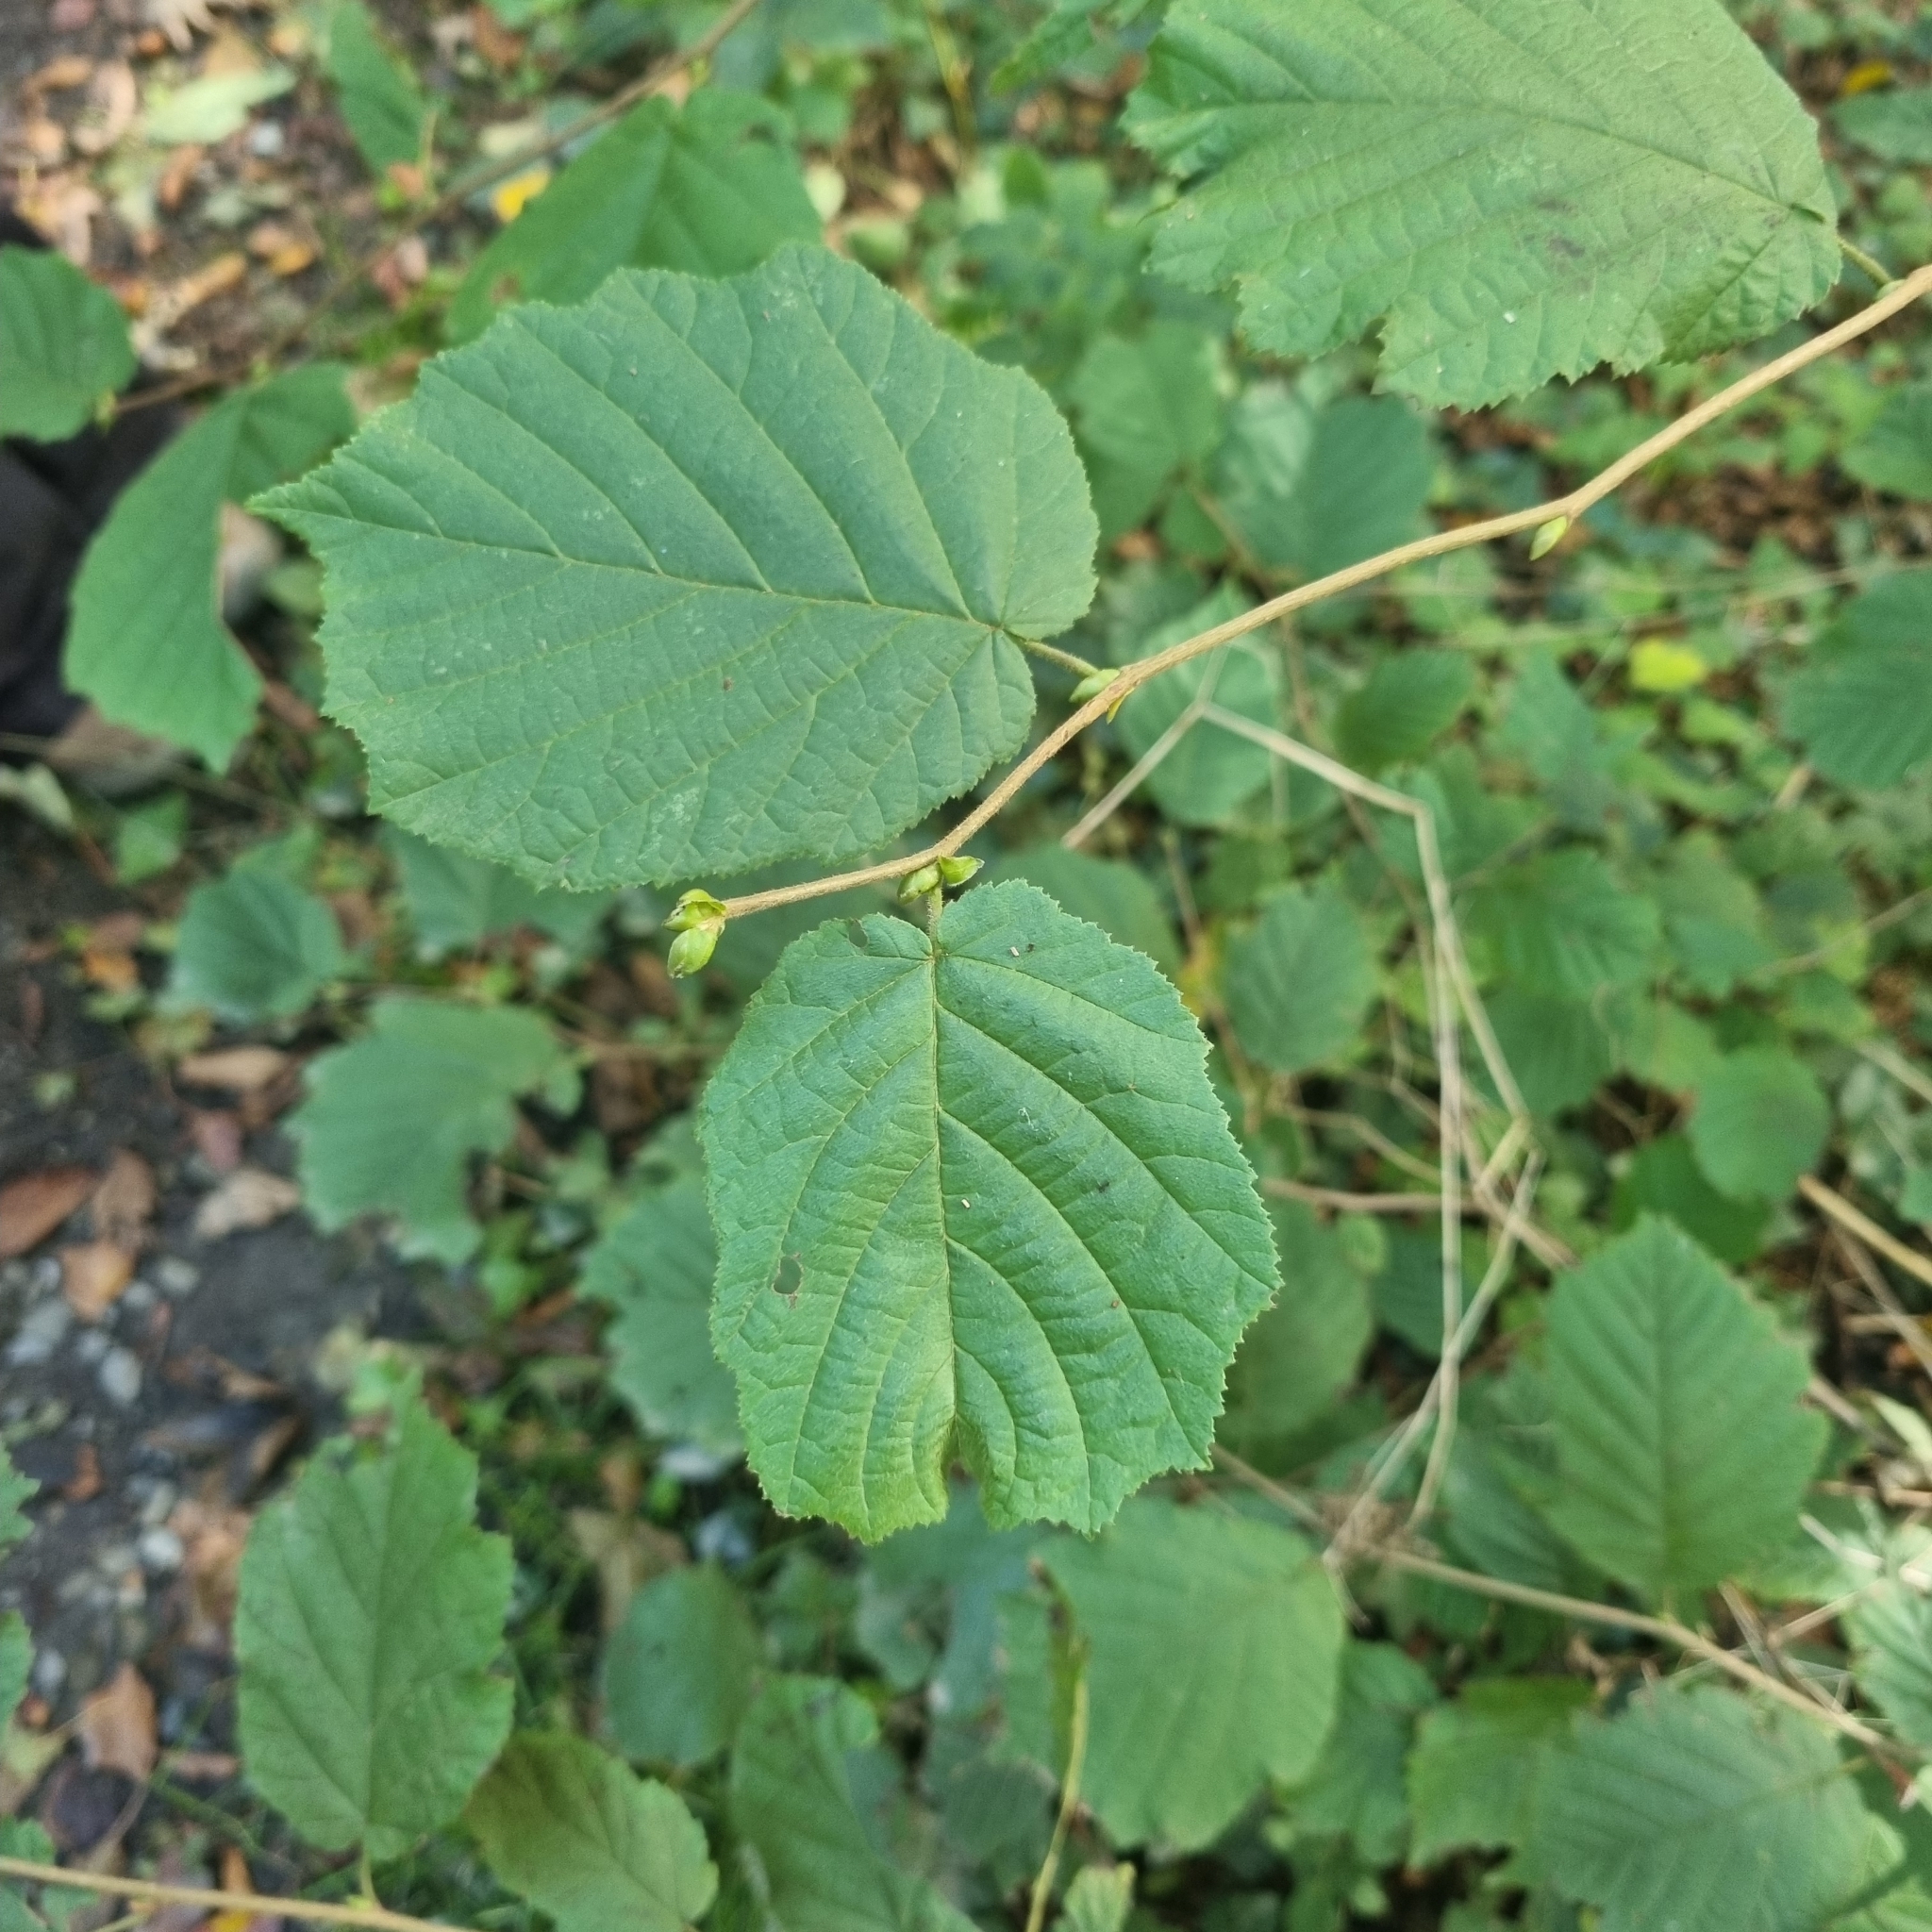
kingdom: Plantae
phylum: Tracheophyta
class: Magnoliopsida
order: Fagales
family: Betulaceae
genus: Corylus
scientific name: Corylus avellana
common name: European hazel
